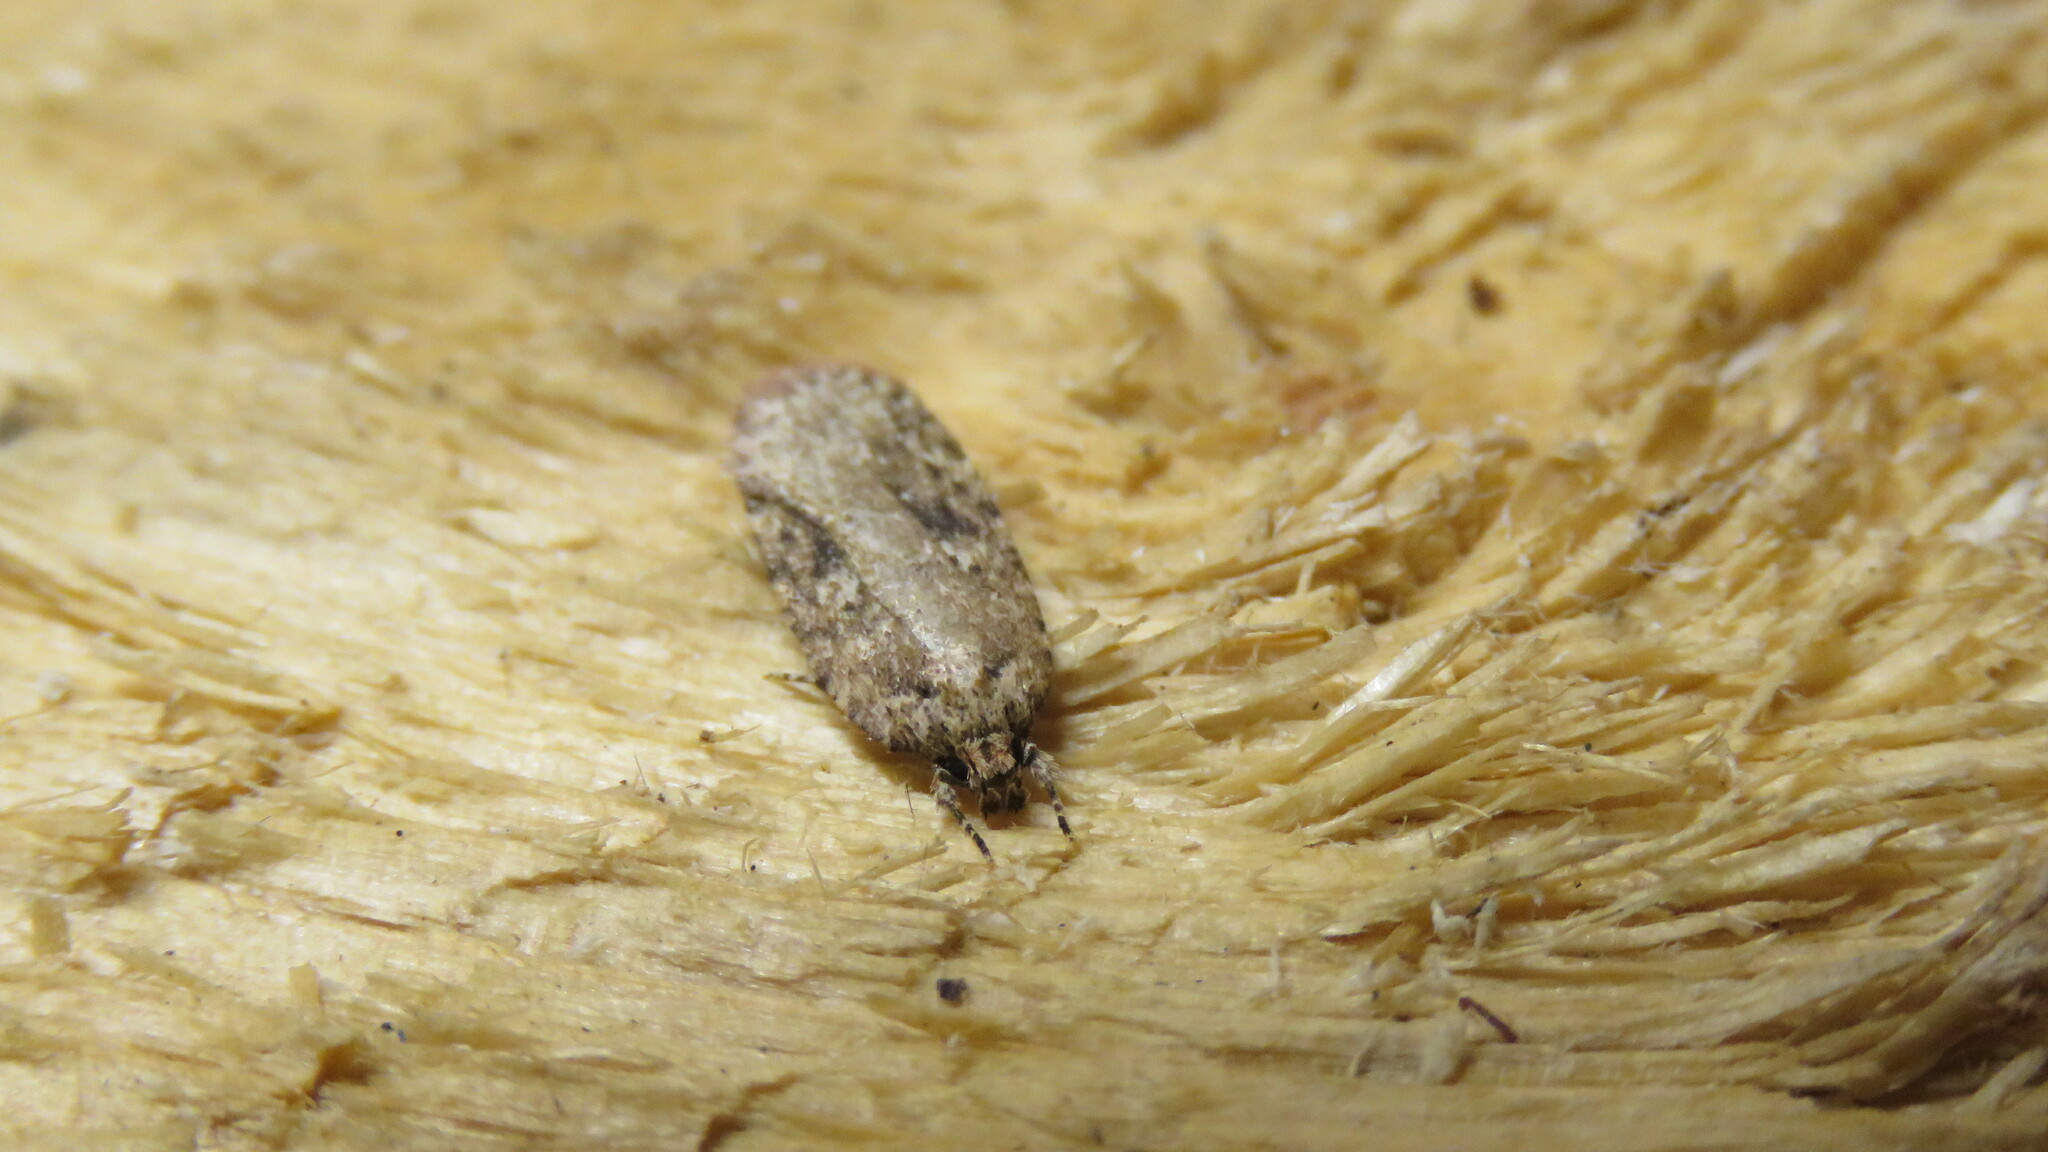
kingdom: Animalia
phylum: Arthropoda
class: Insecta
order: Lepidoptera
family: Depressariidae
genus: Agonopterix
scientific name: Agonopterix pulvipennella
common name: Goldenrod leafffolder
